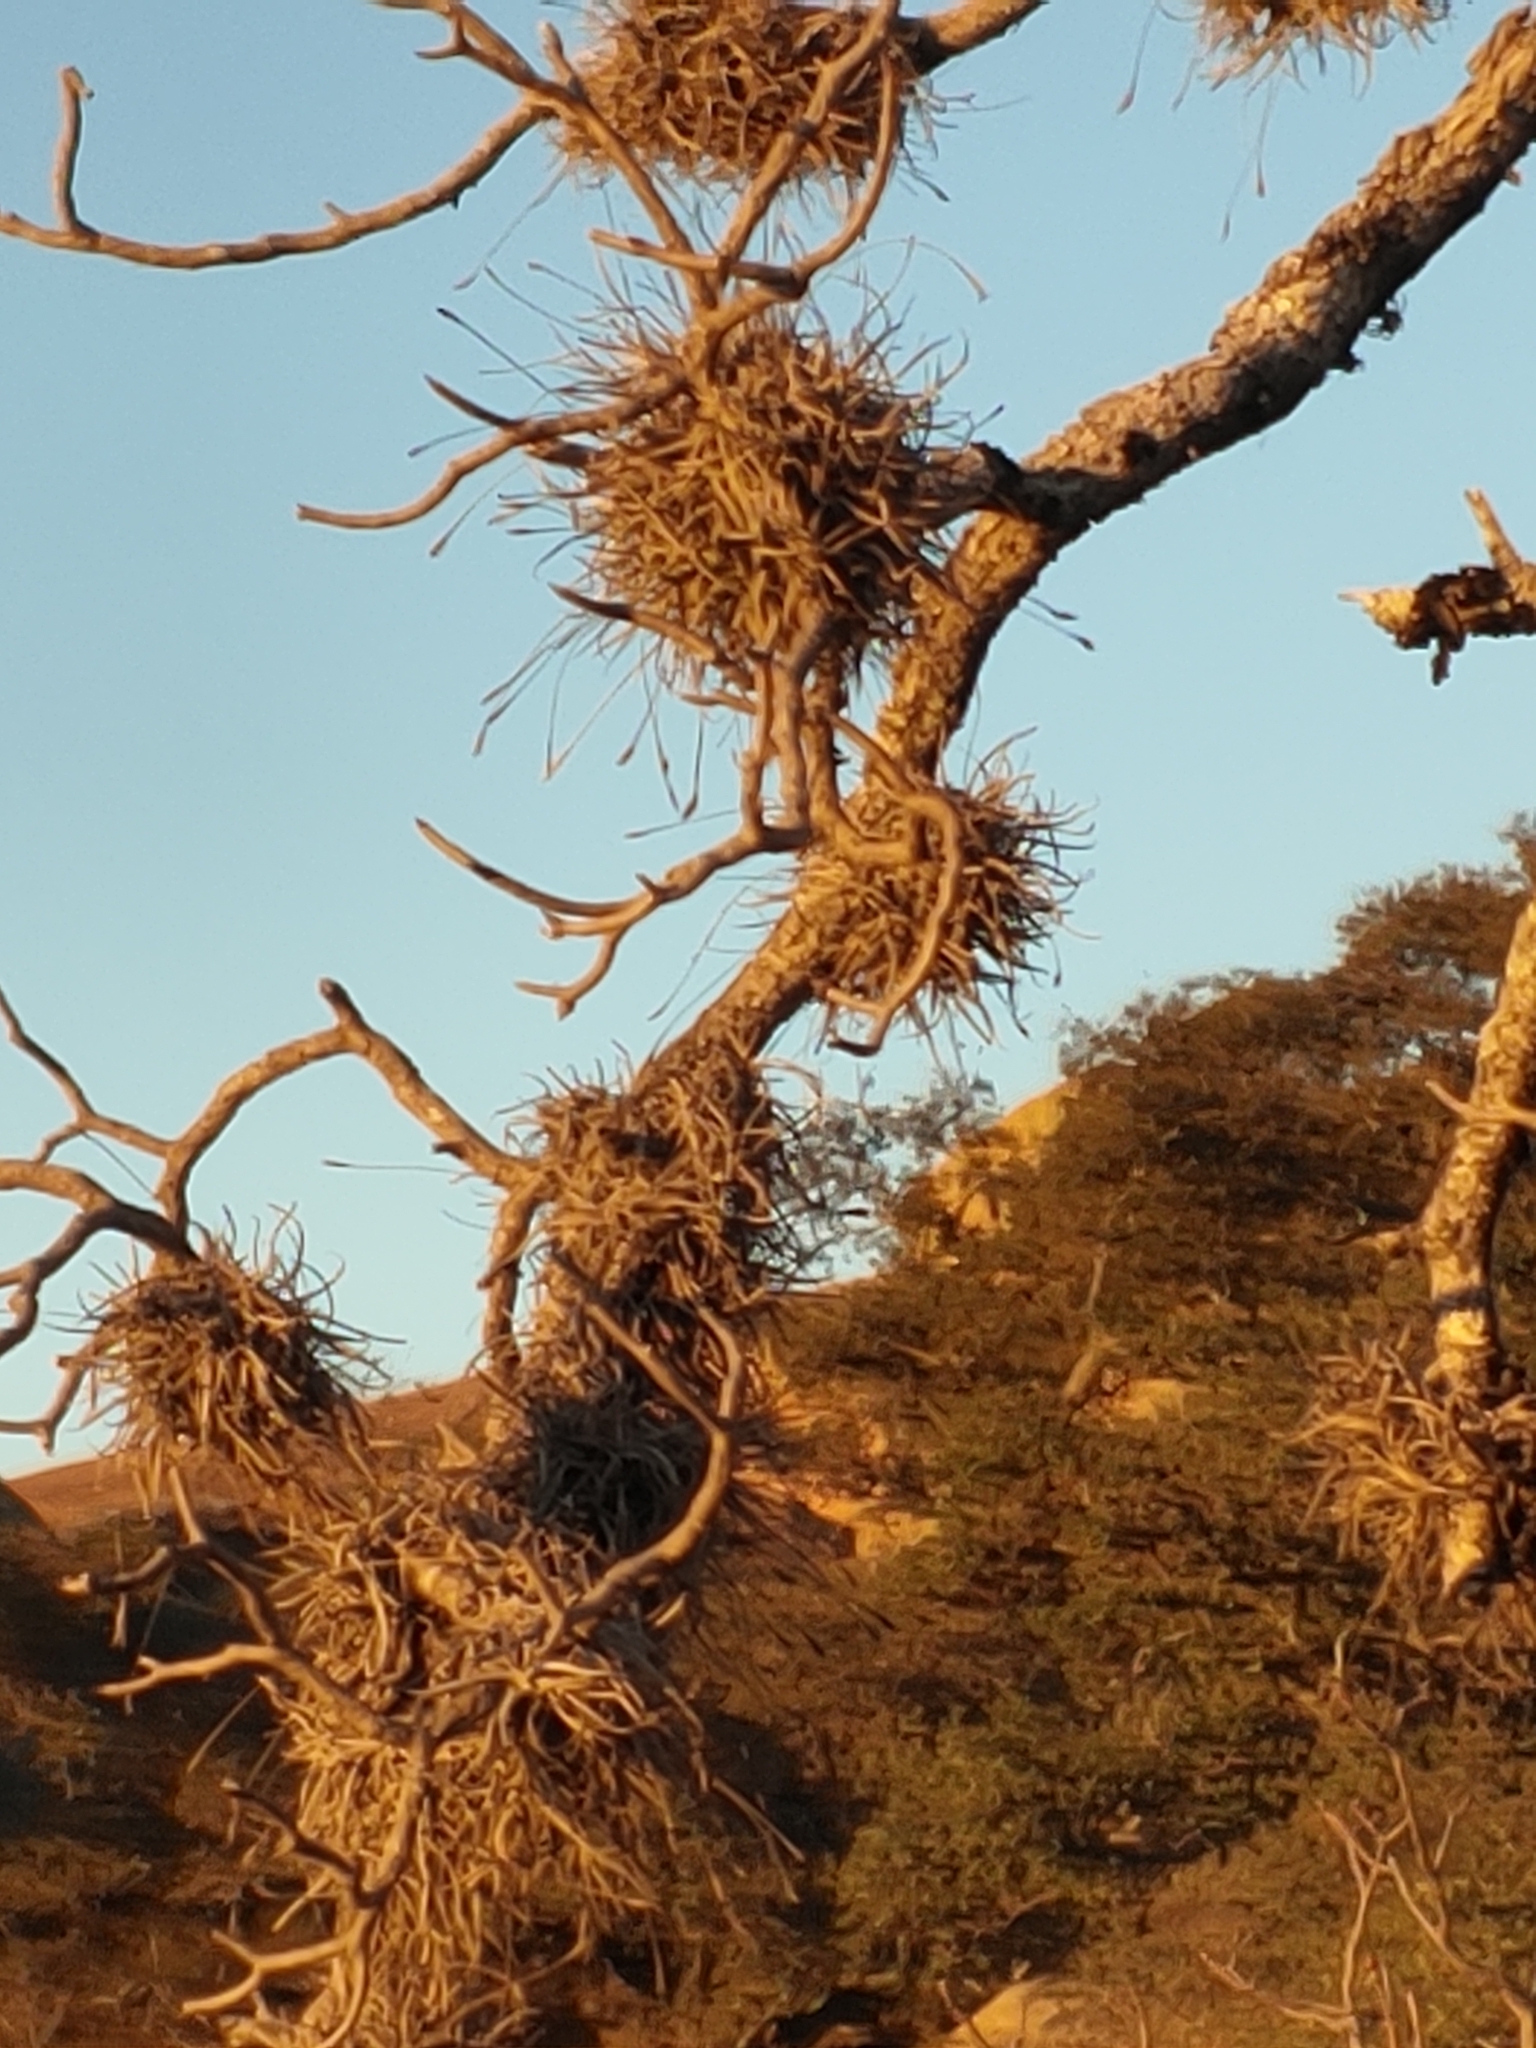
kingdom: Plantae
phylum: Tracheophyta
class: Liliopsida
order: Poales
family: Bromeliaceae
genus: Tillandsia
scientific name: Tillandsia recurvata
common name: Small ballmoss
